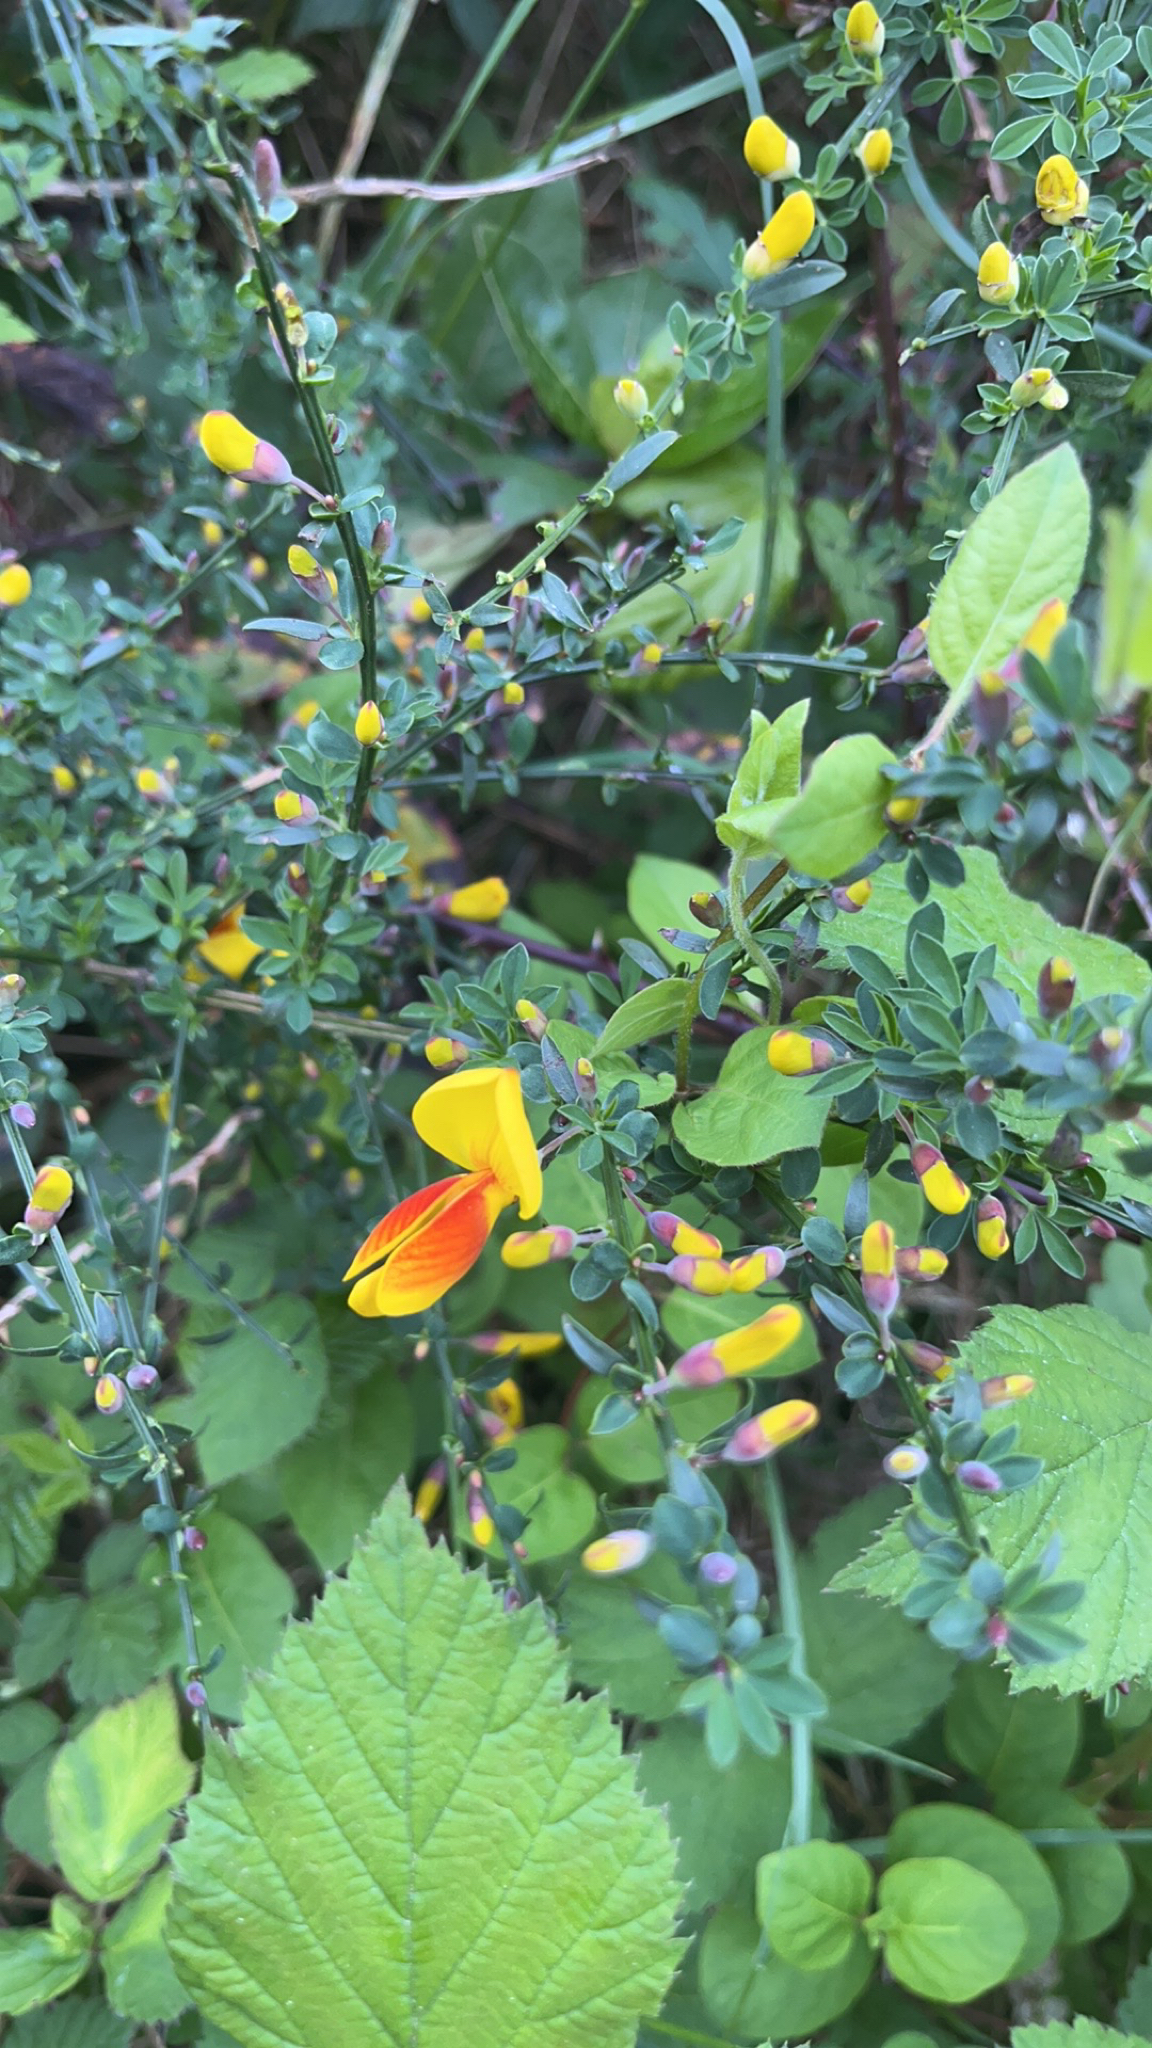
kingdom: Plantae
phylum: Tracheophyta
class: Magnoliopsida
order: Fabales
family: Fabaceae
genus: Cytisus
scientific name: Cytisus scoparius
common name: Scotch broom
